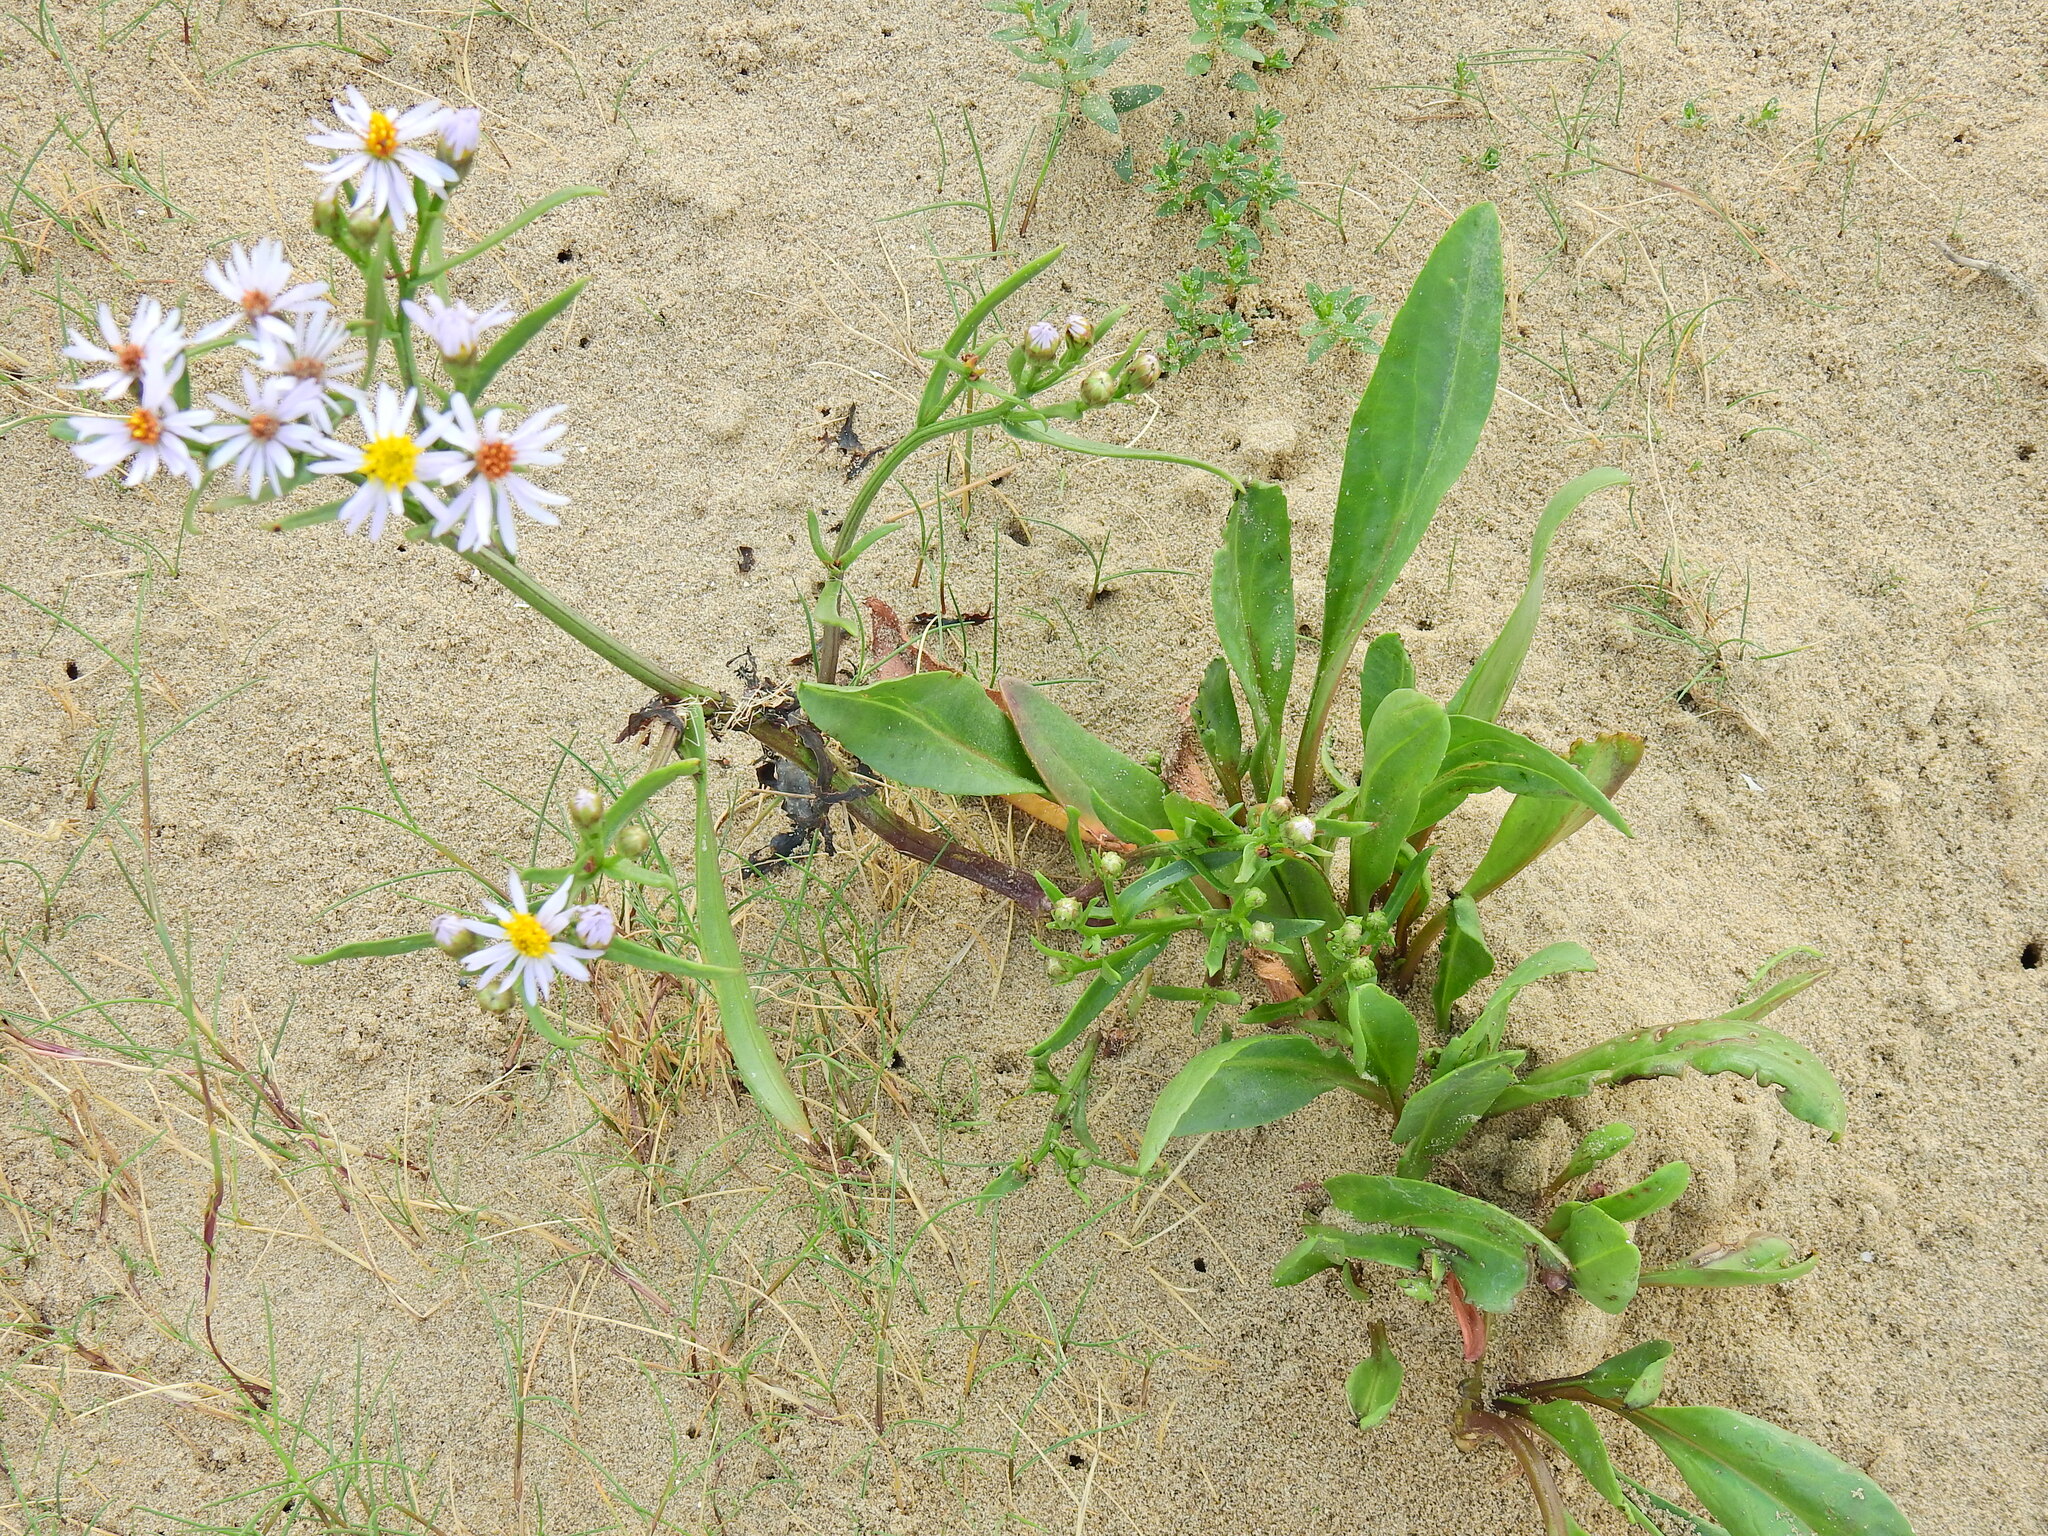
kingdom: Plantae
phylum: Tracheophyta
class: Magnoliopsida
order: Asterales
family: Asteraceae
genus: Tripolium
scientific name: Tripolium pannonicum
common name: Sea aster
